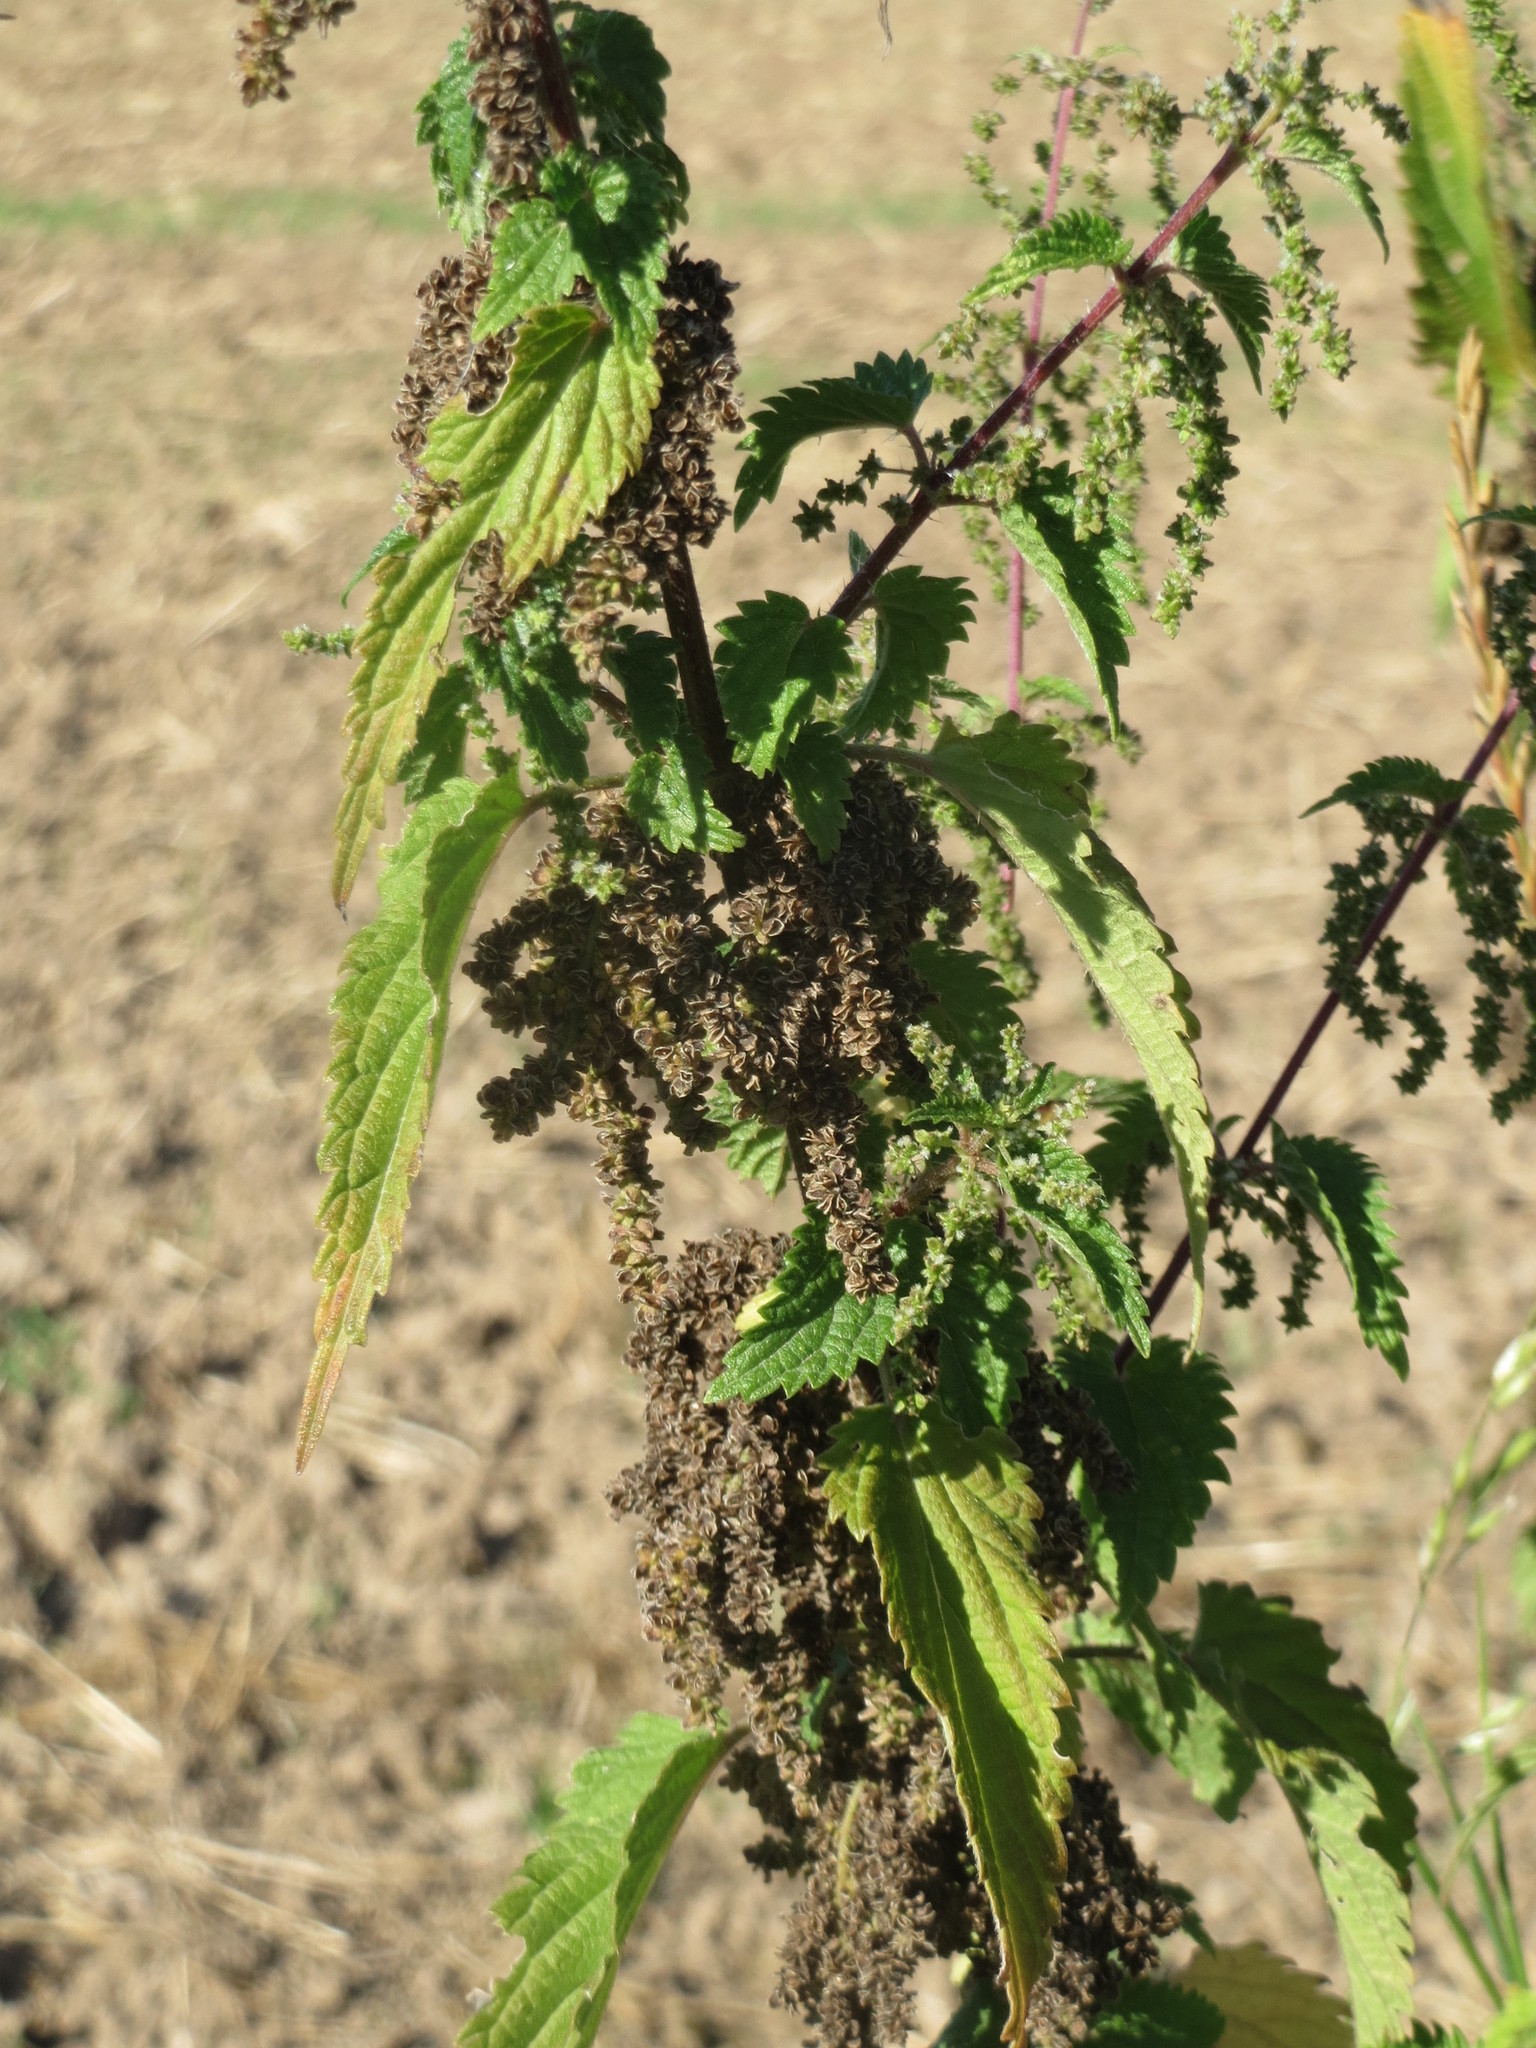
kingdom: Plantae
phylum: Tracheophyta
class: Magnoliopsida
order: Rosales
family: Urticaceae
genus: Urtica
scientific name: Urtica dioica
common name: Common nettle
